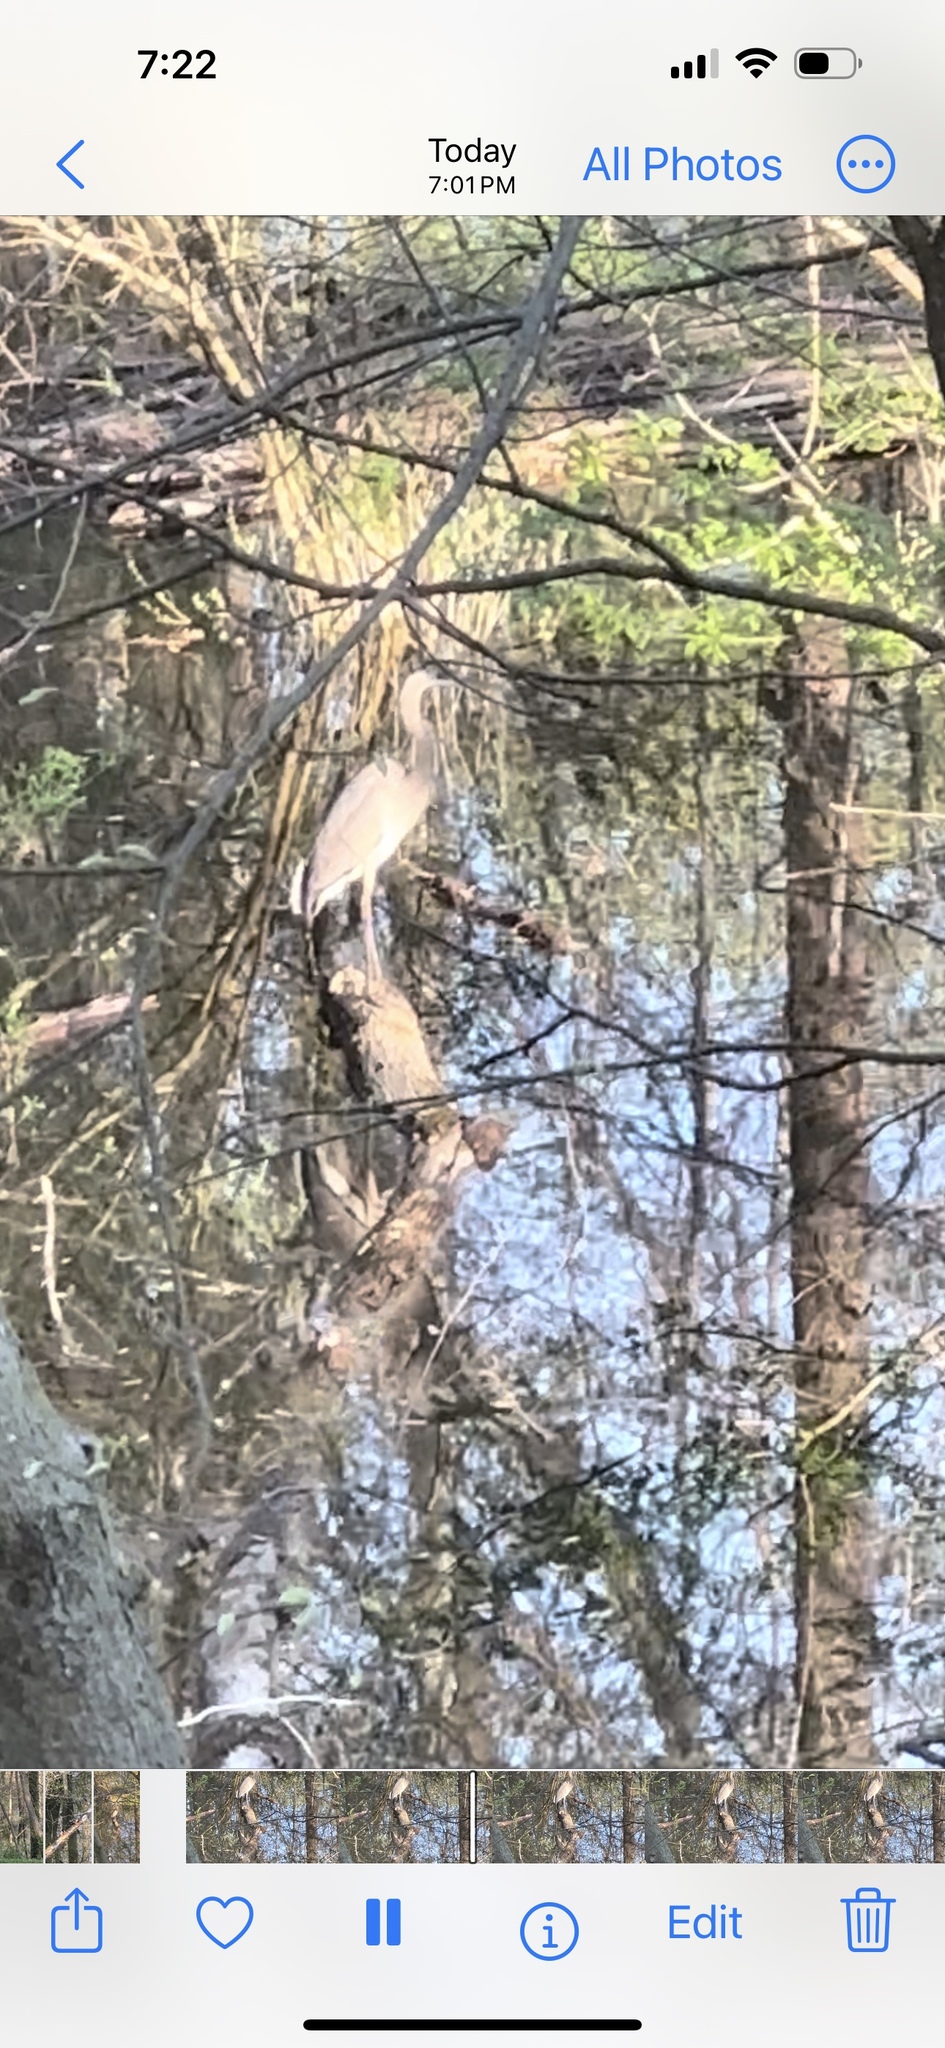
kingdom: Animalia
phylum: Chordata
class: Aves
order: Pelecaniformes
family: Ardeidae
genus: Ardea
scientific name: Ardea herodias
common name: Great blue heron
